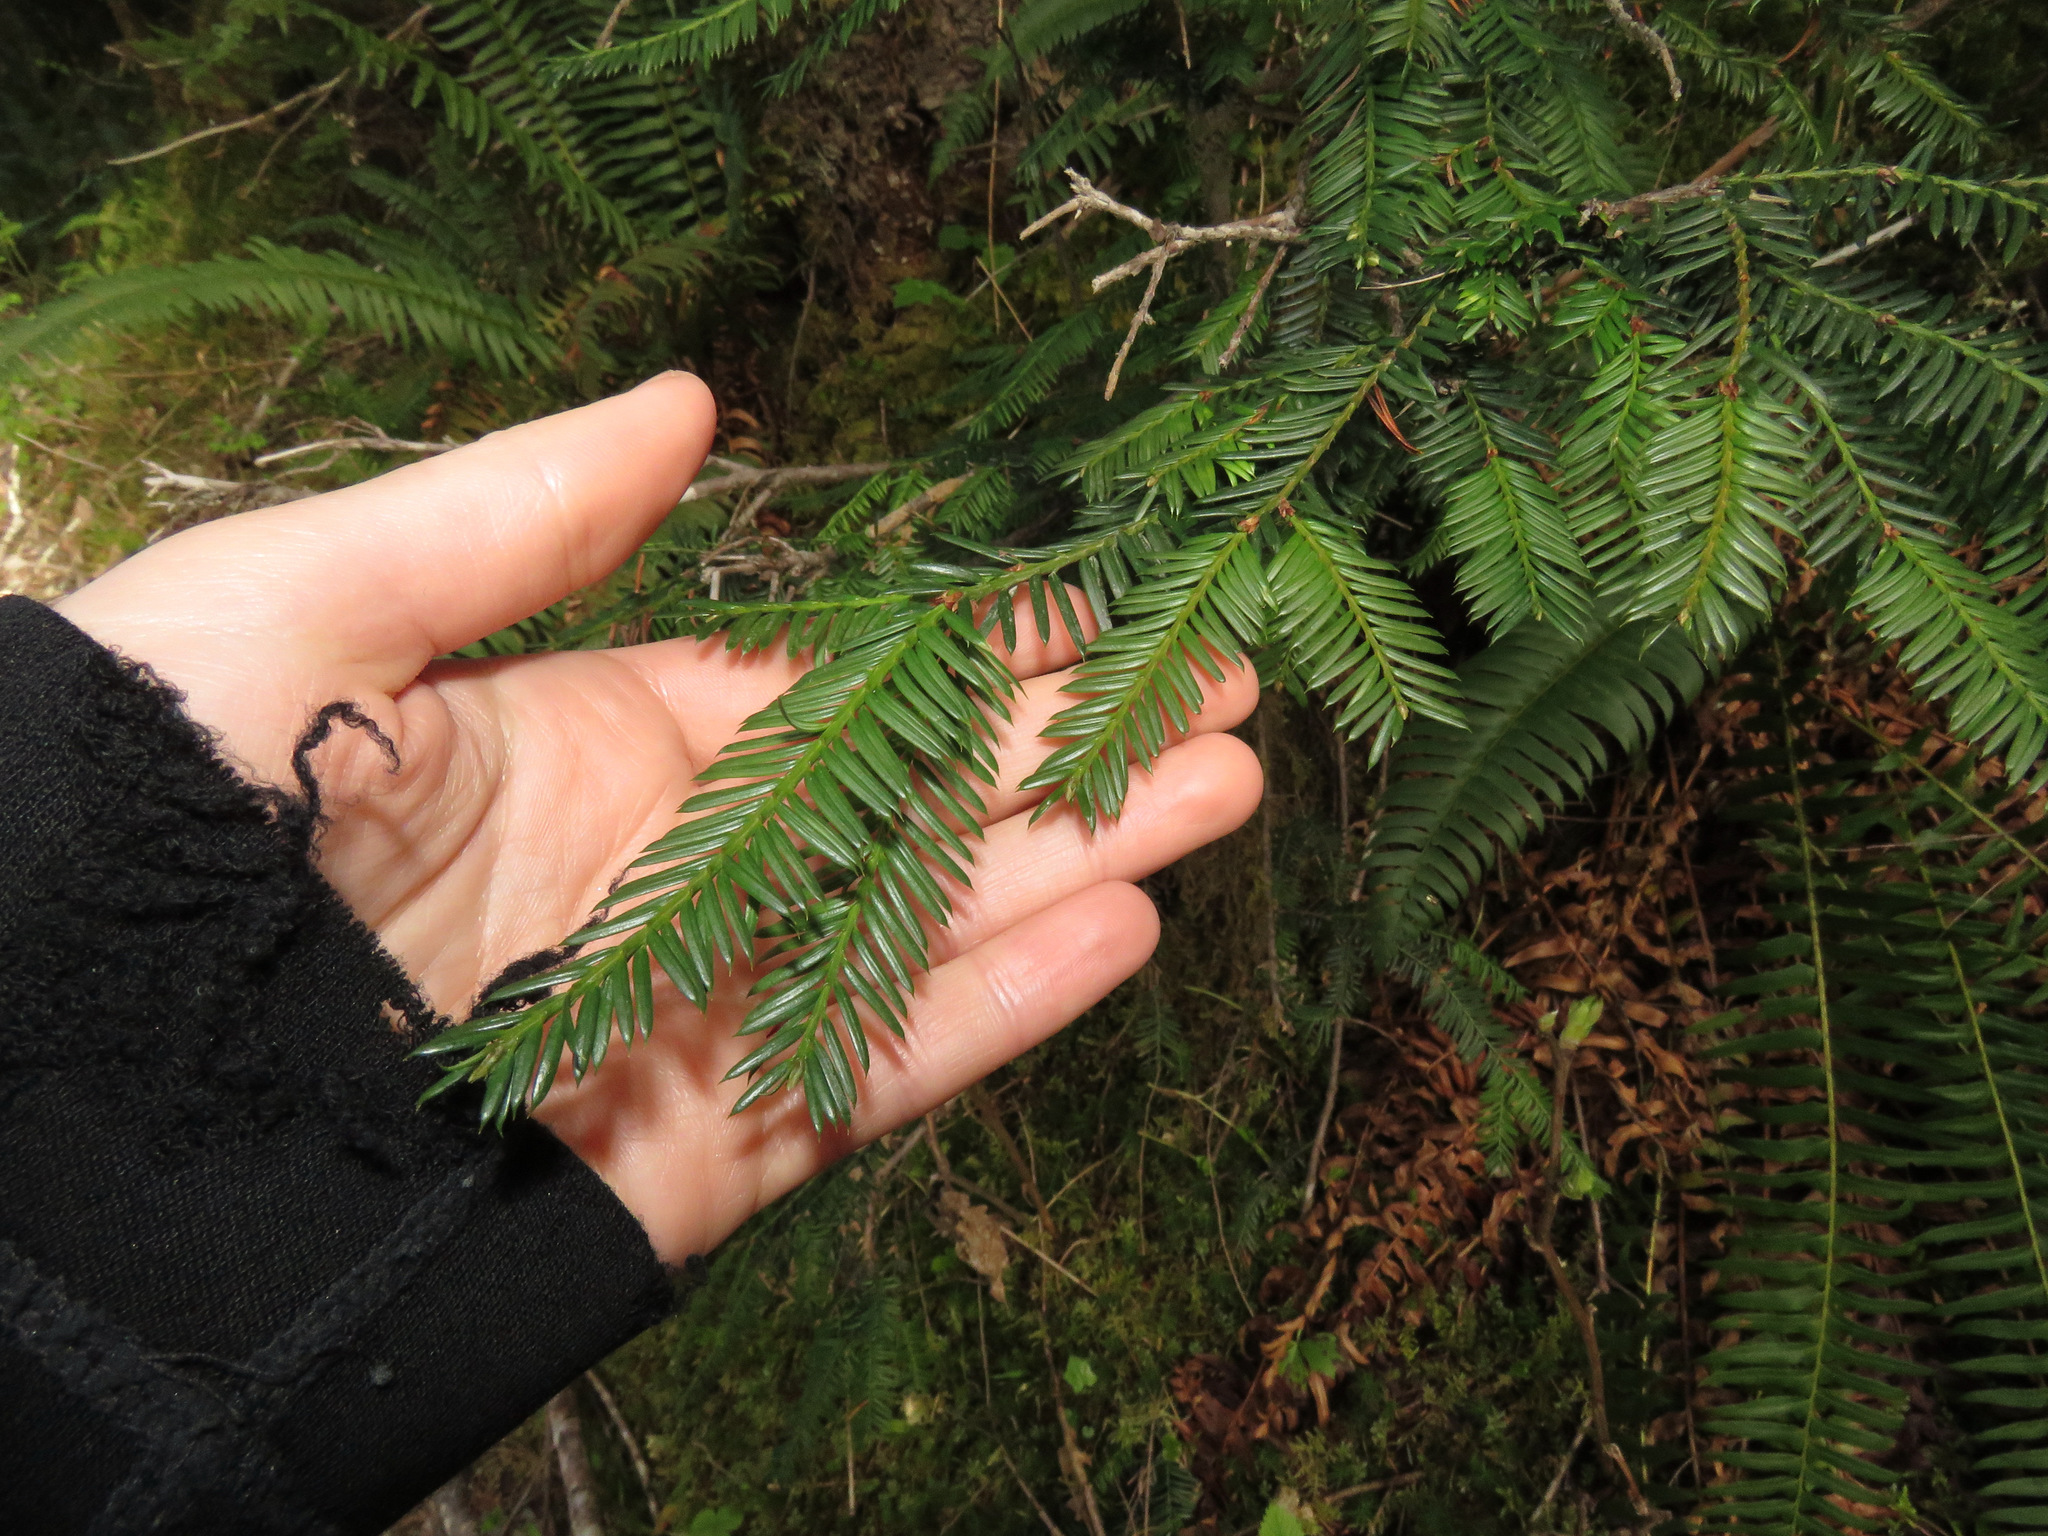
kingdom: Plantae
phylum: Tracheophyta
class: Pinopsida
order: Pinales
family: Pinaceae
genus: Abies
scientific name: Abies grandis
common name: Giant fir
